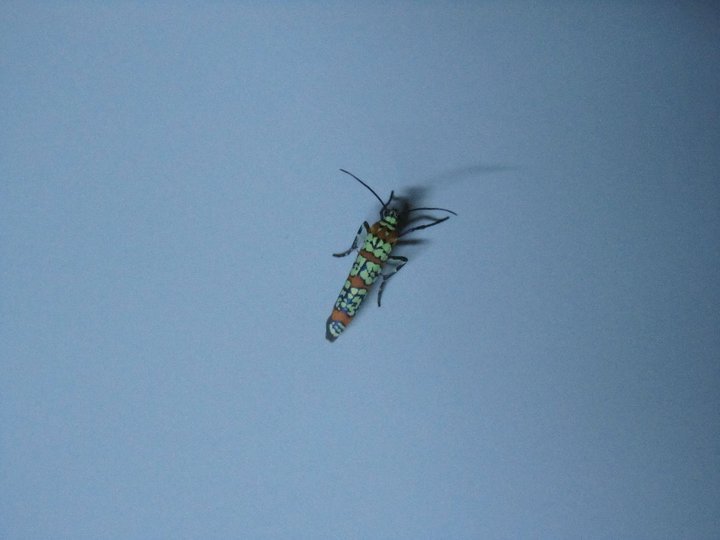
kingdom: Animalia
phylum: Arthropoda
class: Insecta
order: Lepidoptera
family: Attevidae
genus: Atteva
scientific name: Atteva punctella
